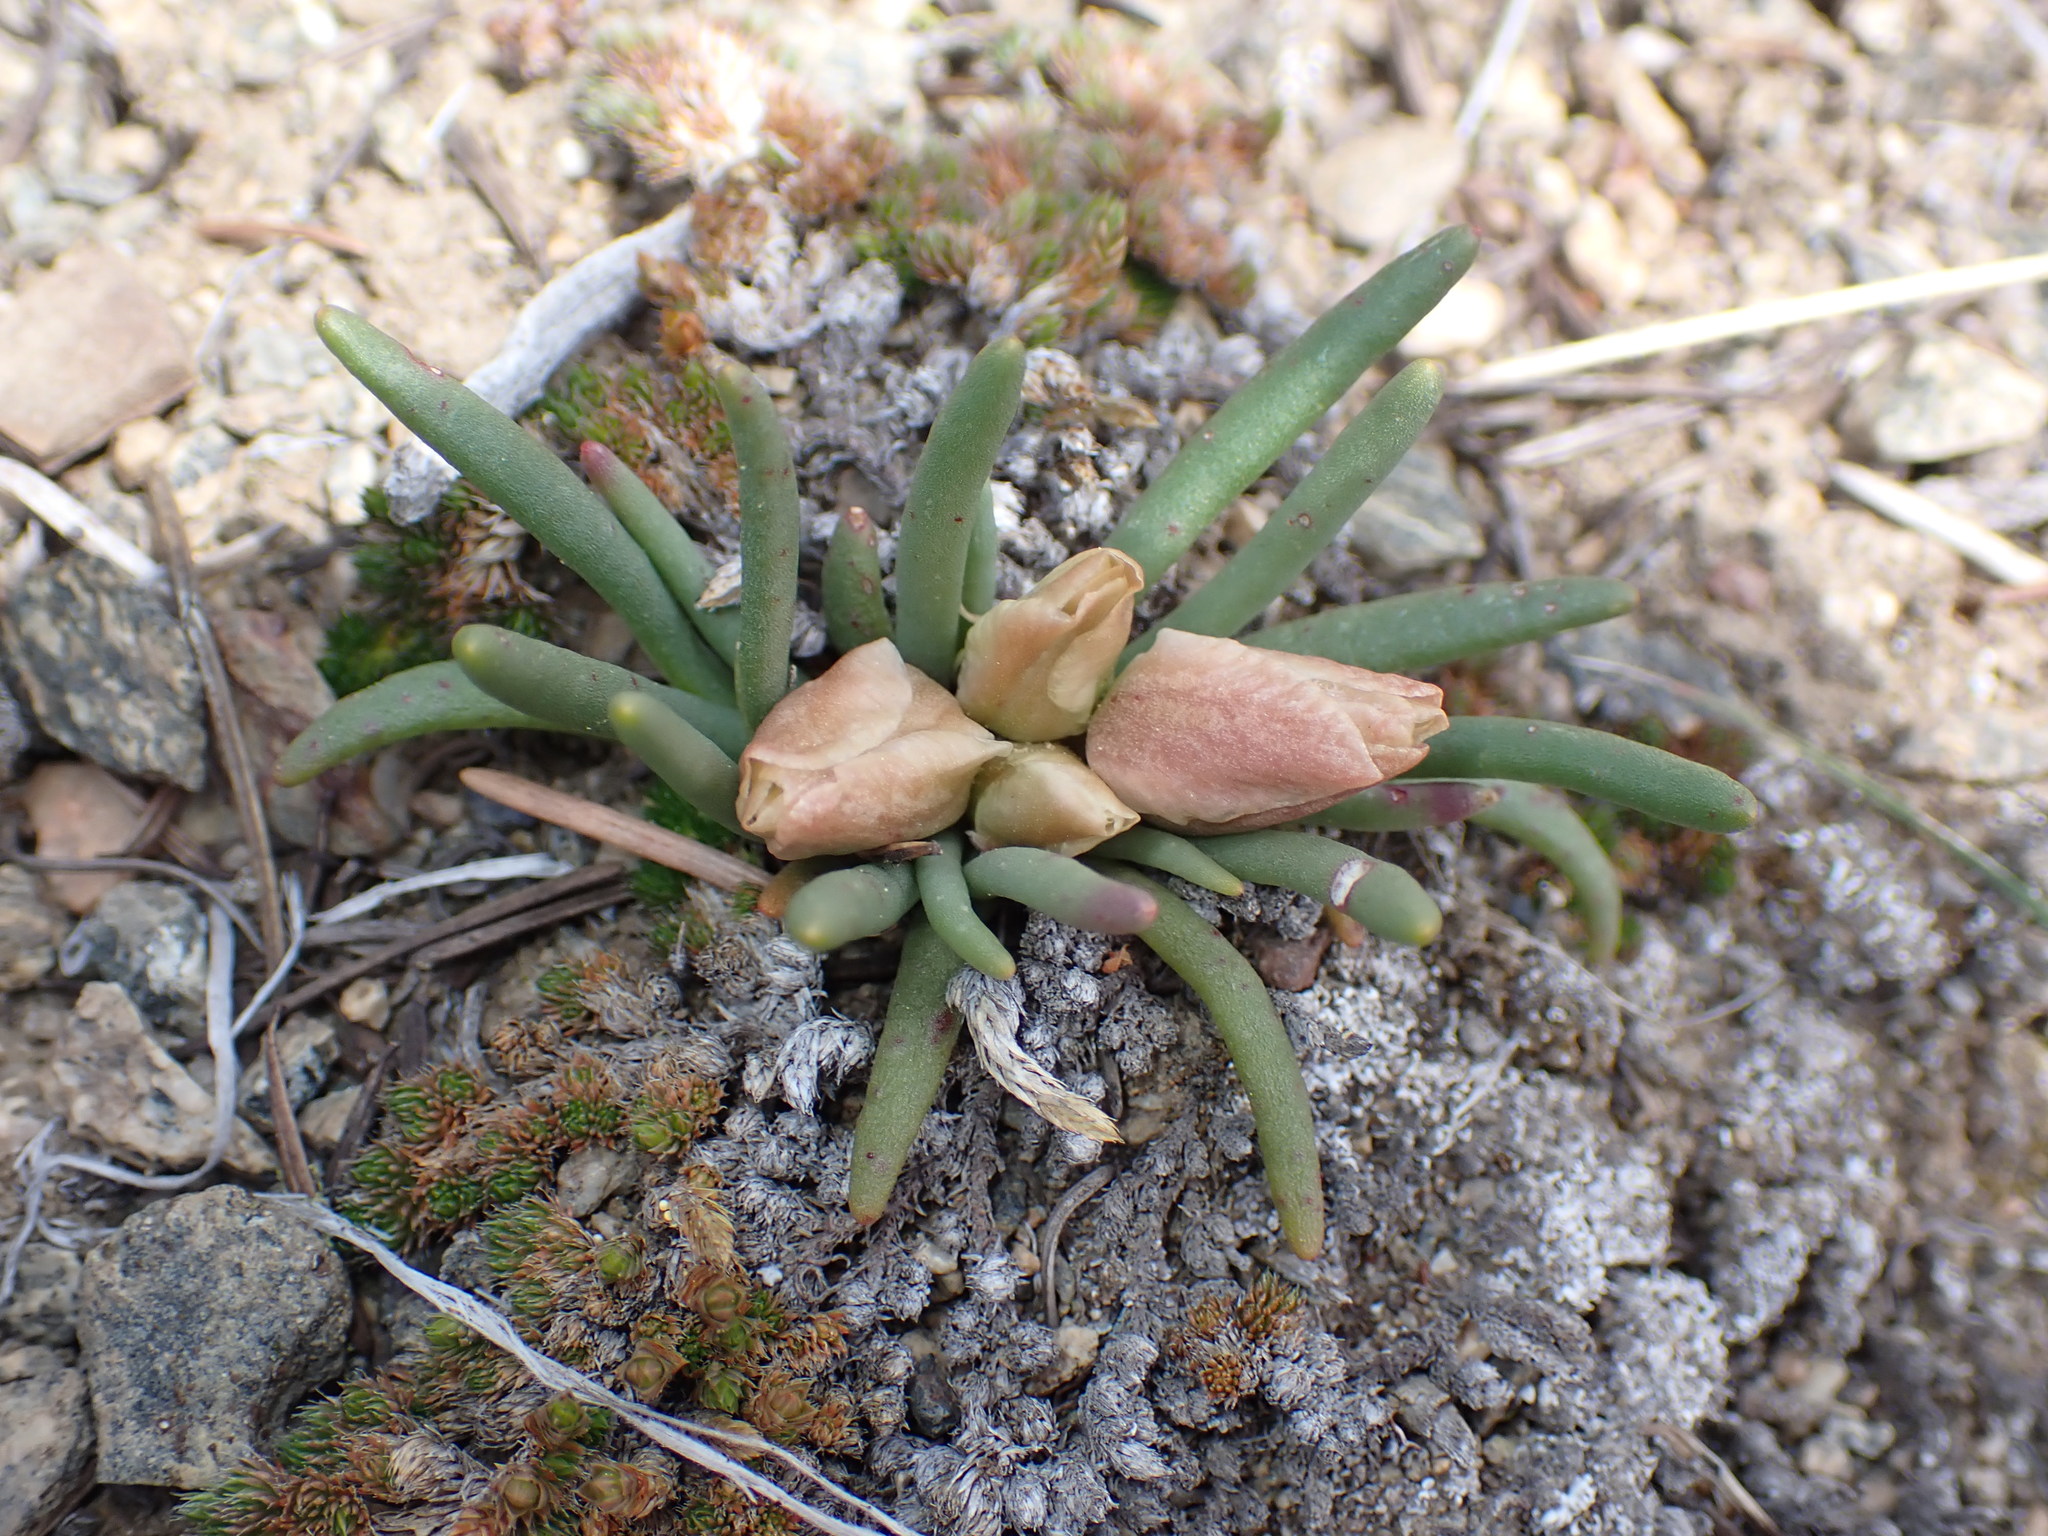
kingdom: Plantae
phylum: Tracheophyta
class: Magnoliopsida
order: Caryophyllales
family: Montiaceae
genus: Lewisia
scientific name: Lewisia rediviva
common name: Bitter-root
